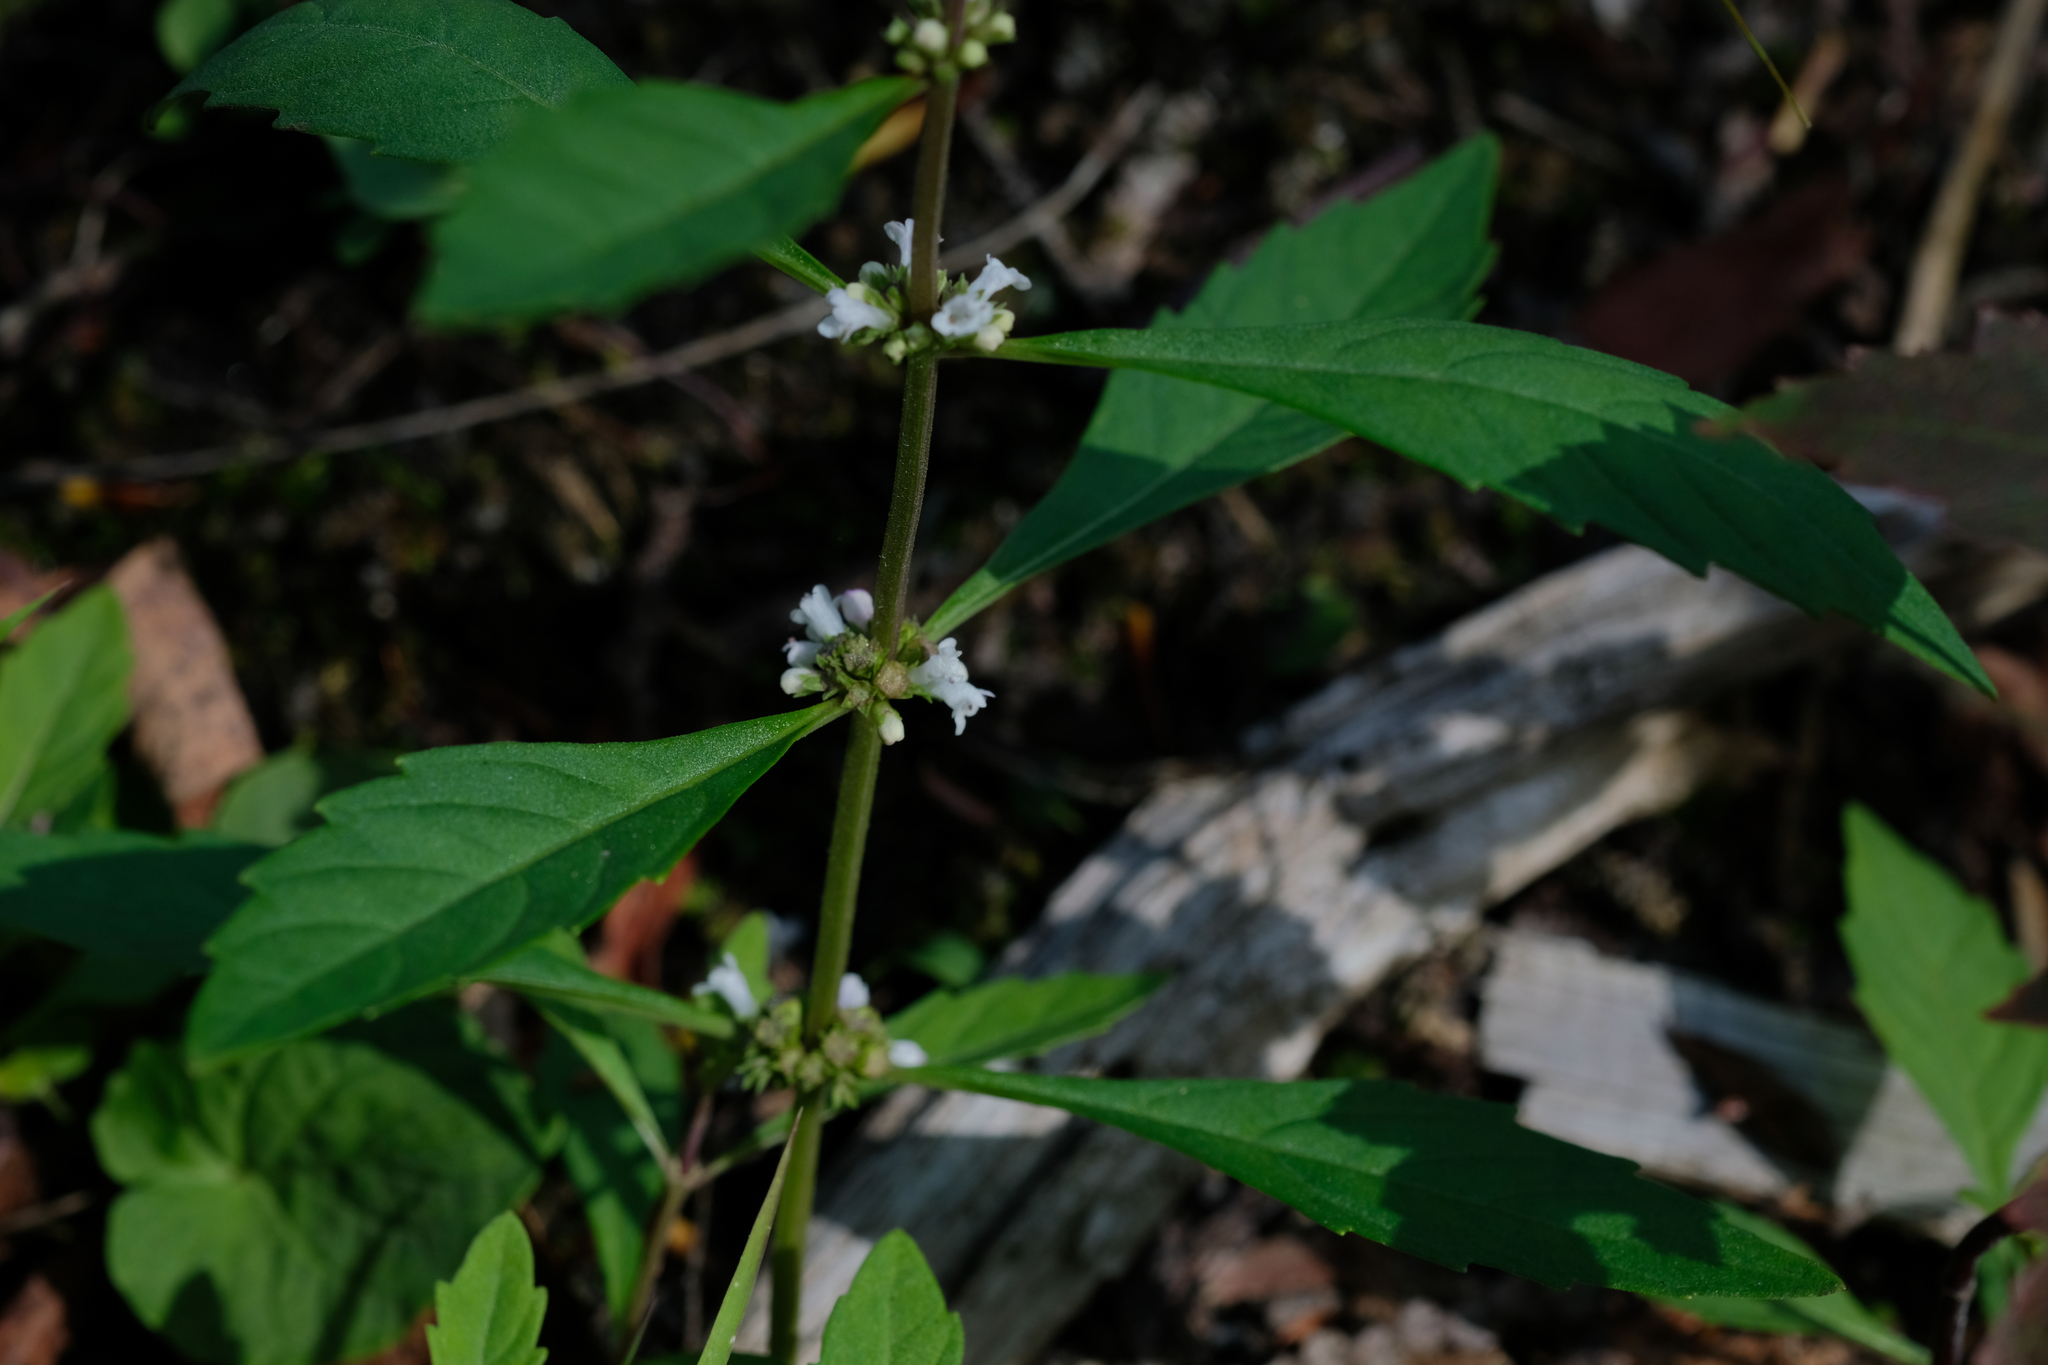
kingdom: Plantae
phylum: Tracheophyta
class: Magnoliopsida
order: Lamiales
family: Lamiaceae
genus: Lycopus
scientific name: Lycopus uniflorus
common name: Northern bugleweed
